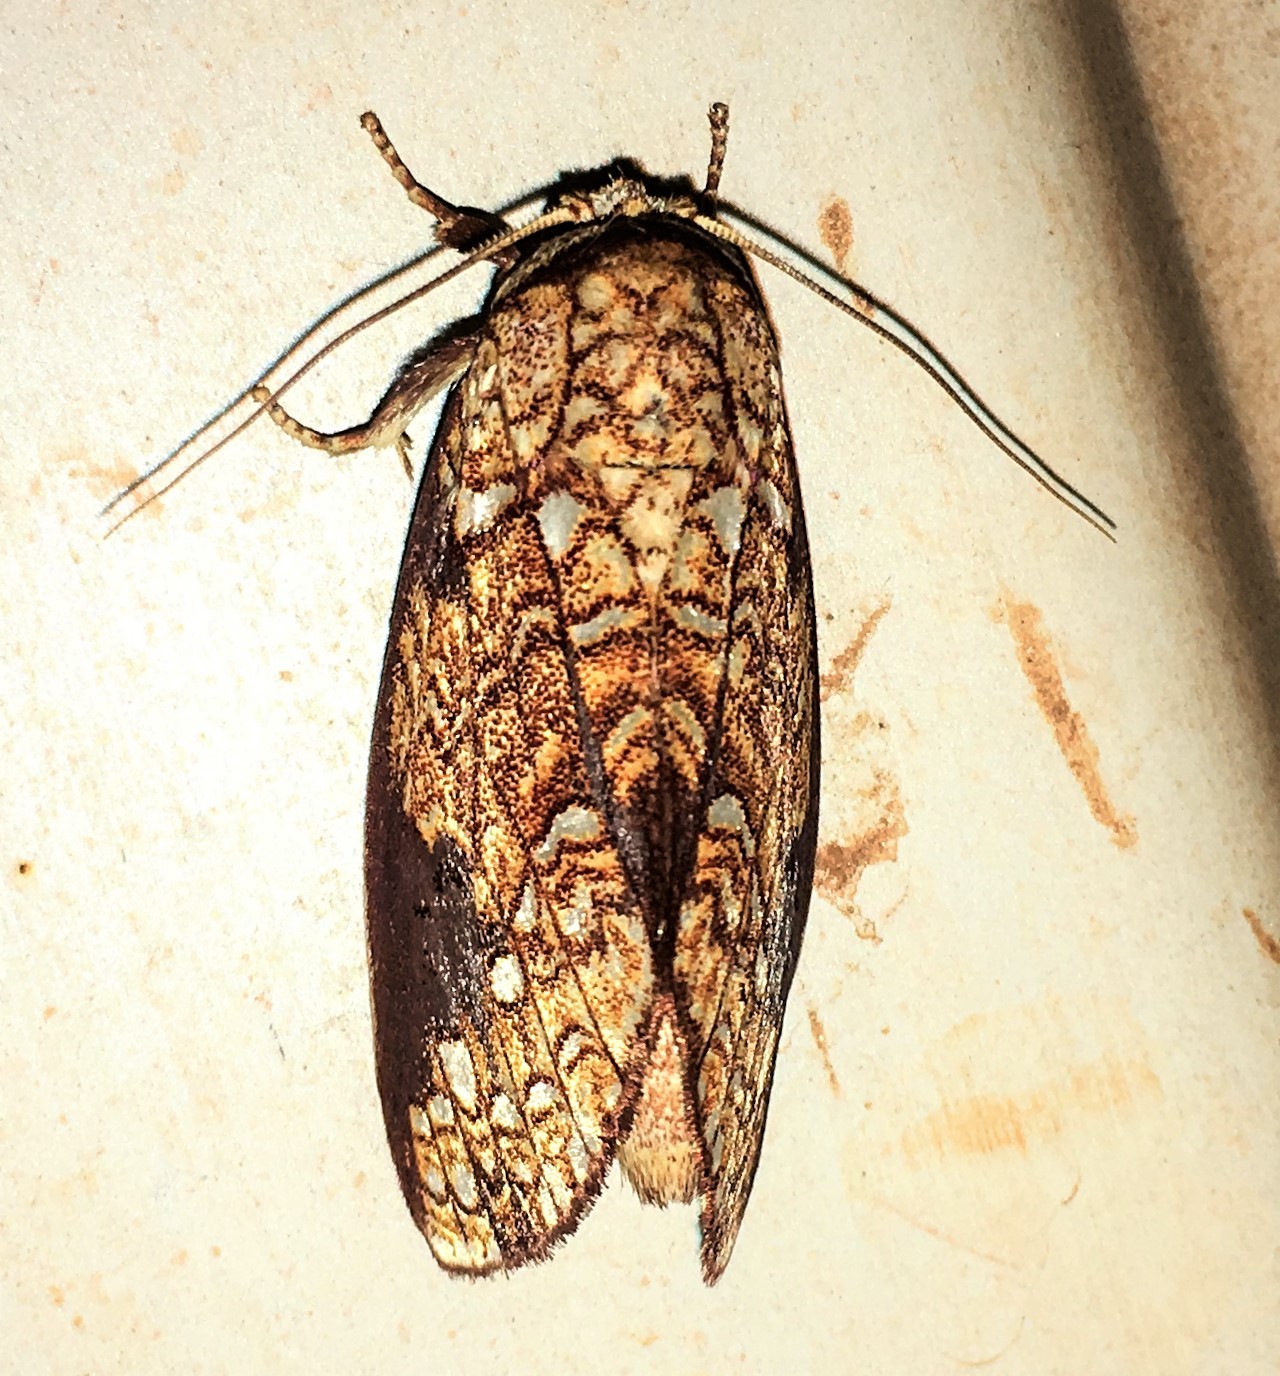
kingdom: Animalia
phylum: Arthropoda
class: Insecta
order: Lepidoptera
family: Notodontidae
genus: Argentiza
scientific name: Argentiza
